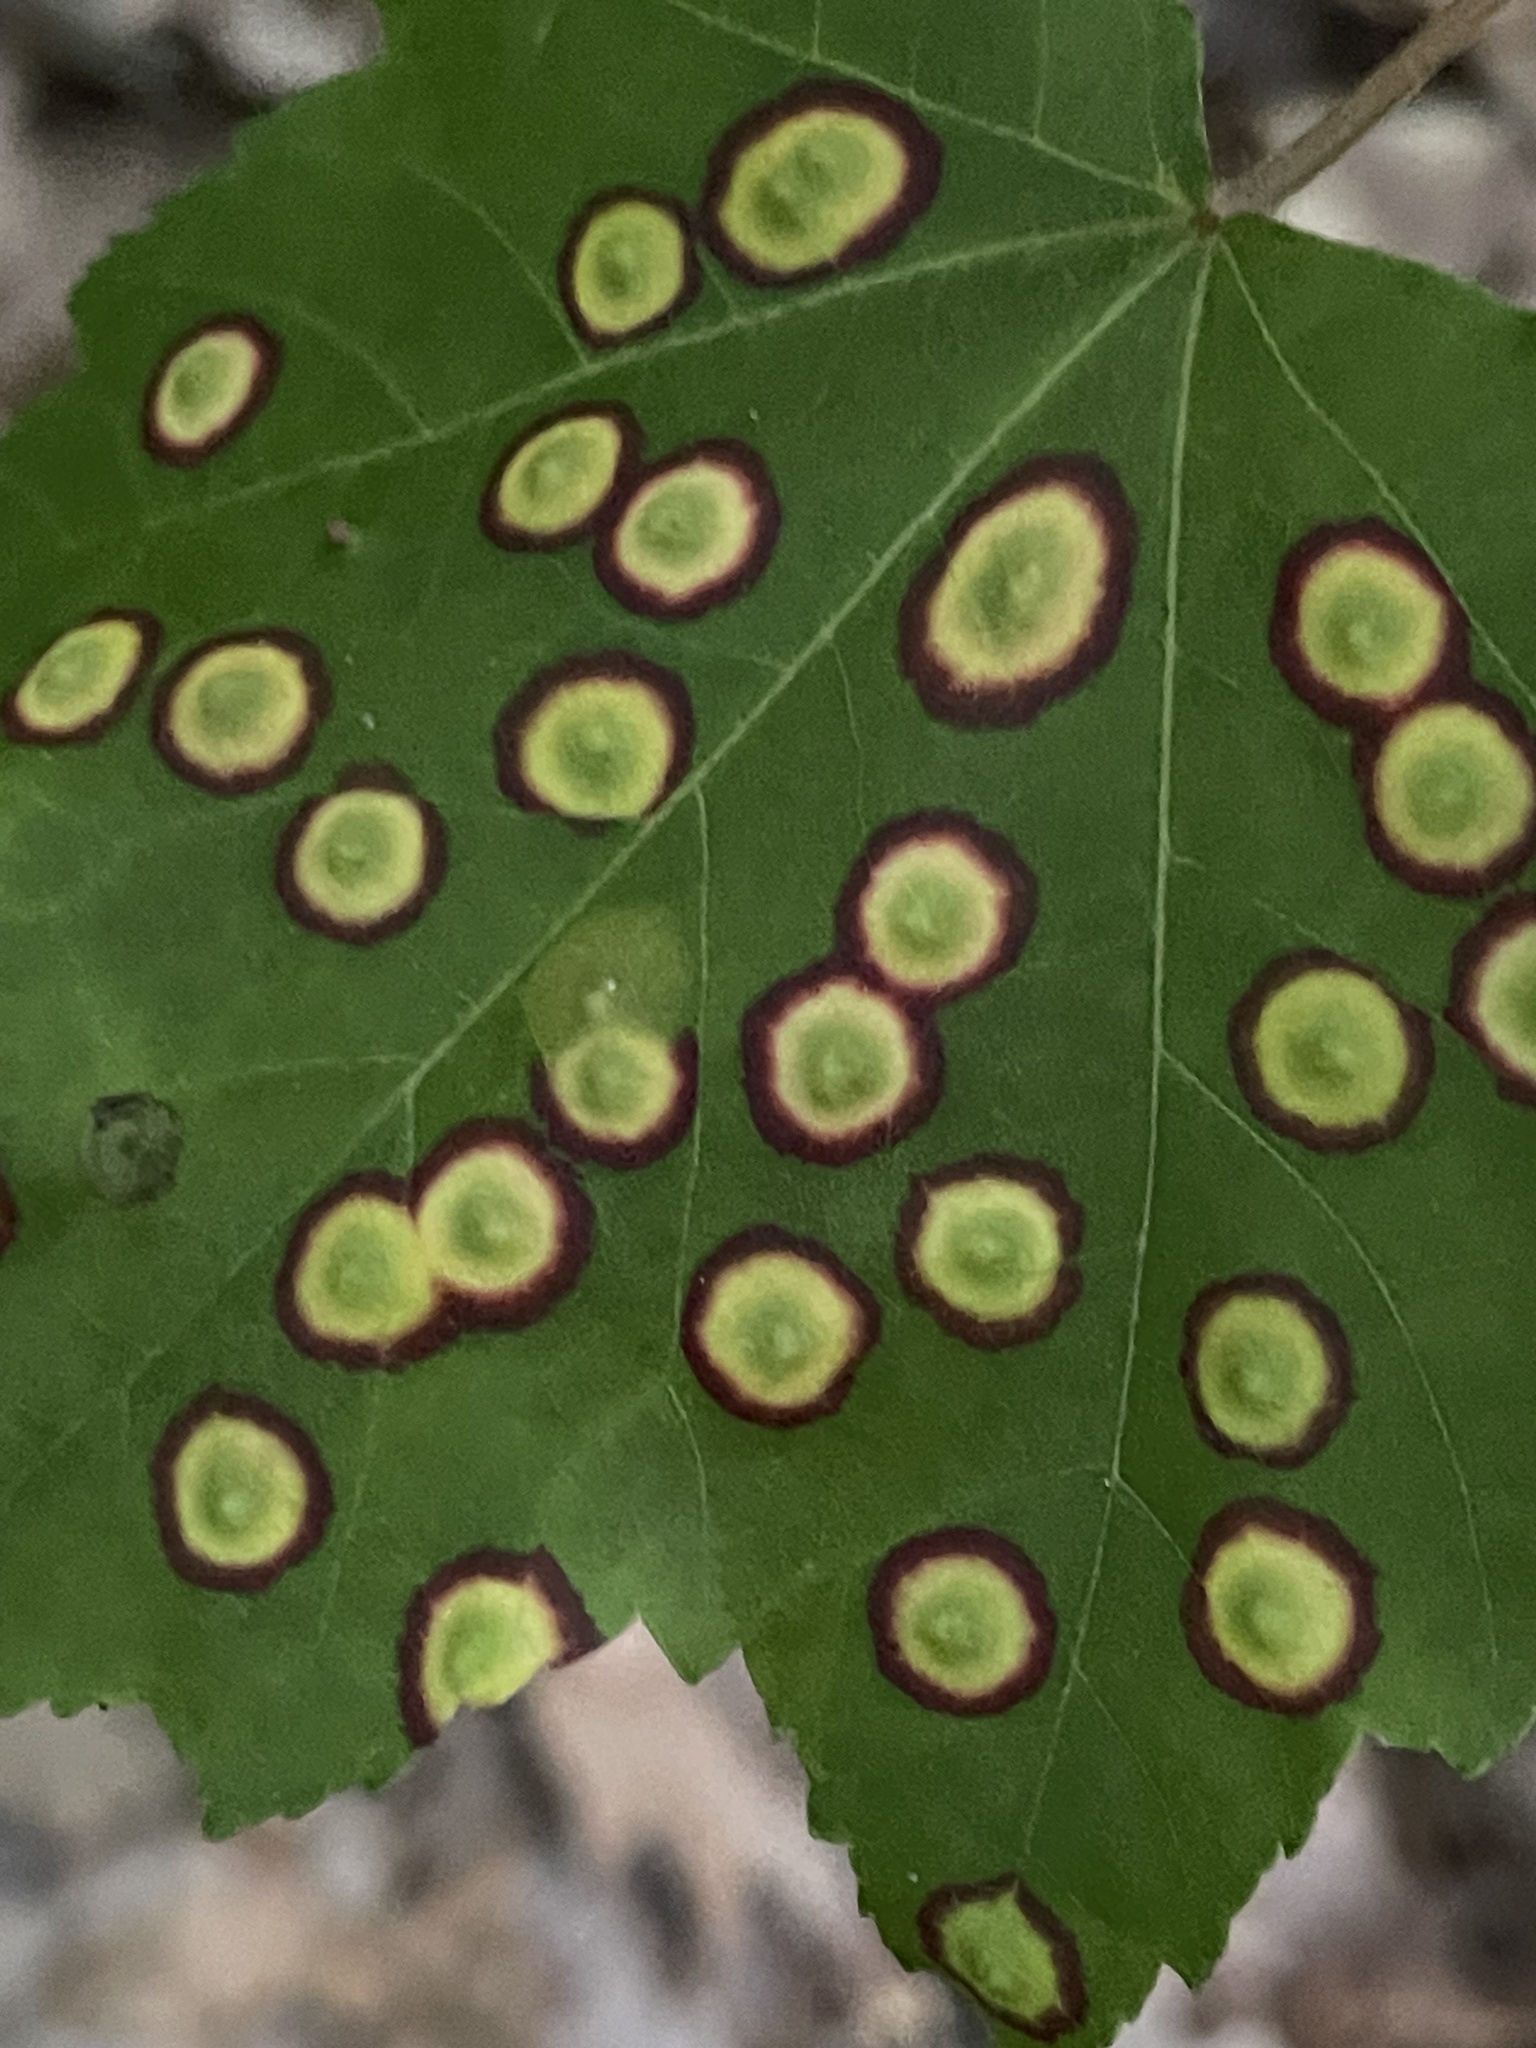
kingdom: Animalia
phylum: Arthropoda
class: Insecta
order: Diptera
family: Cecidomyiidae
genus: Acericecis
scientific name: Acericecis ocellaris
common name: Ocellate gall midge
